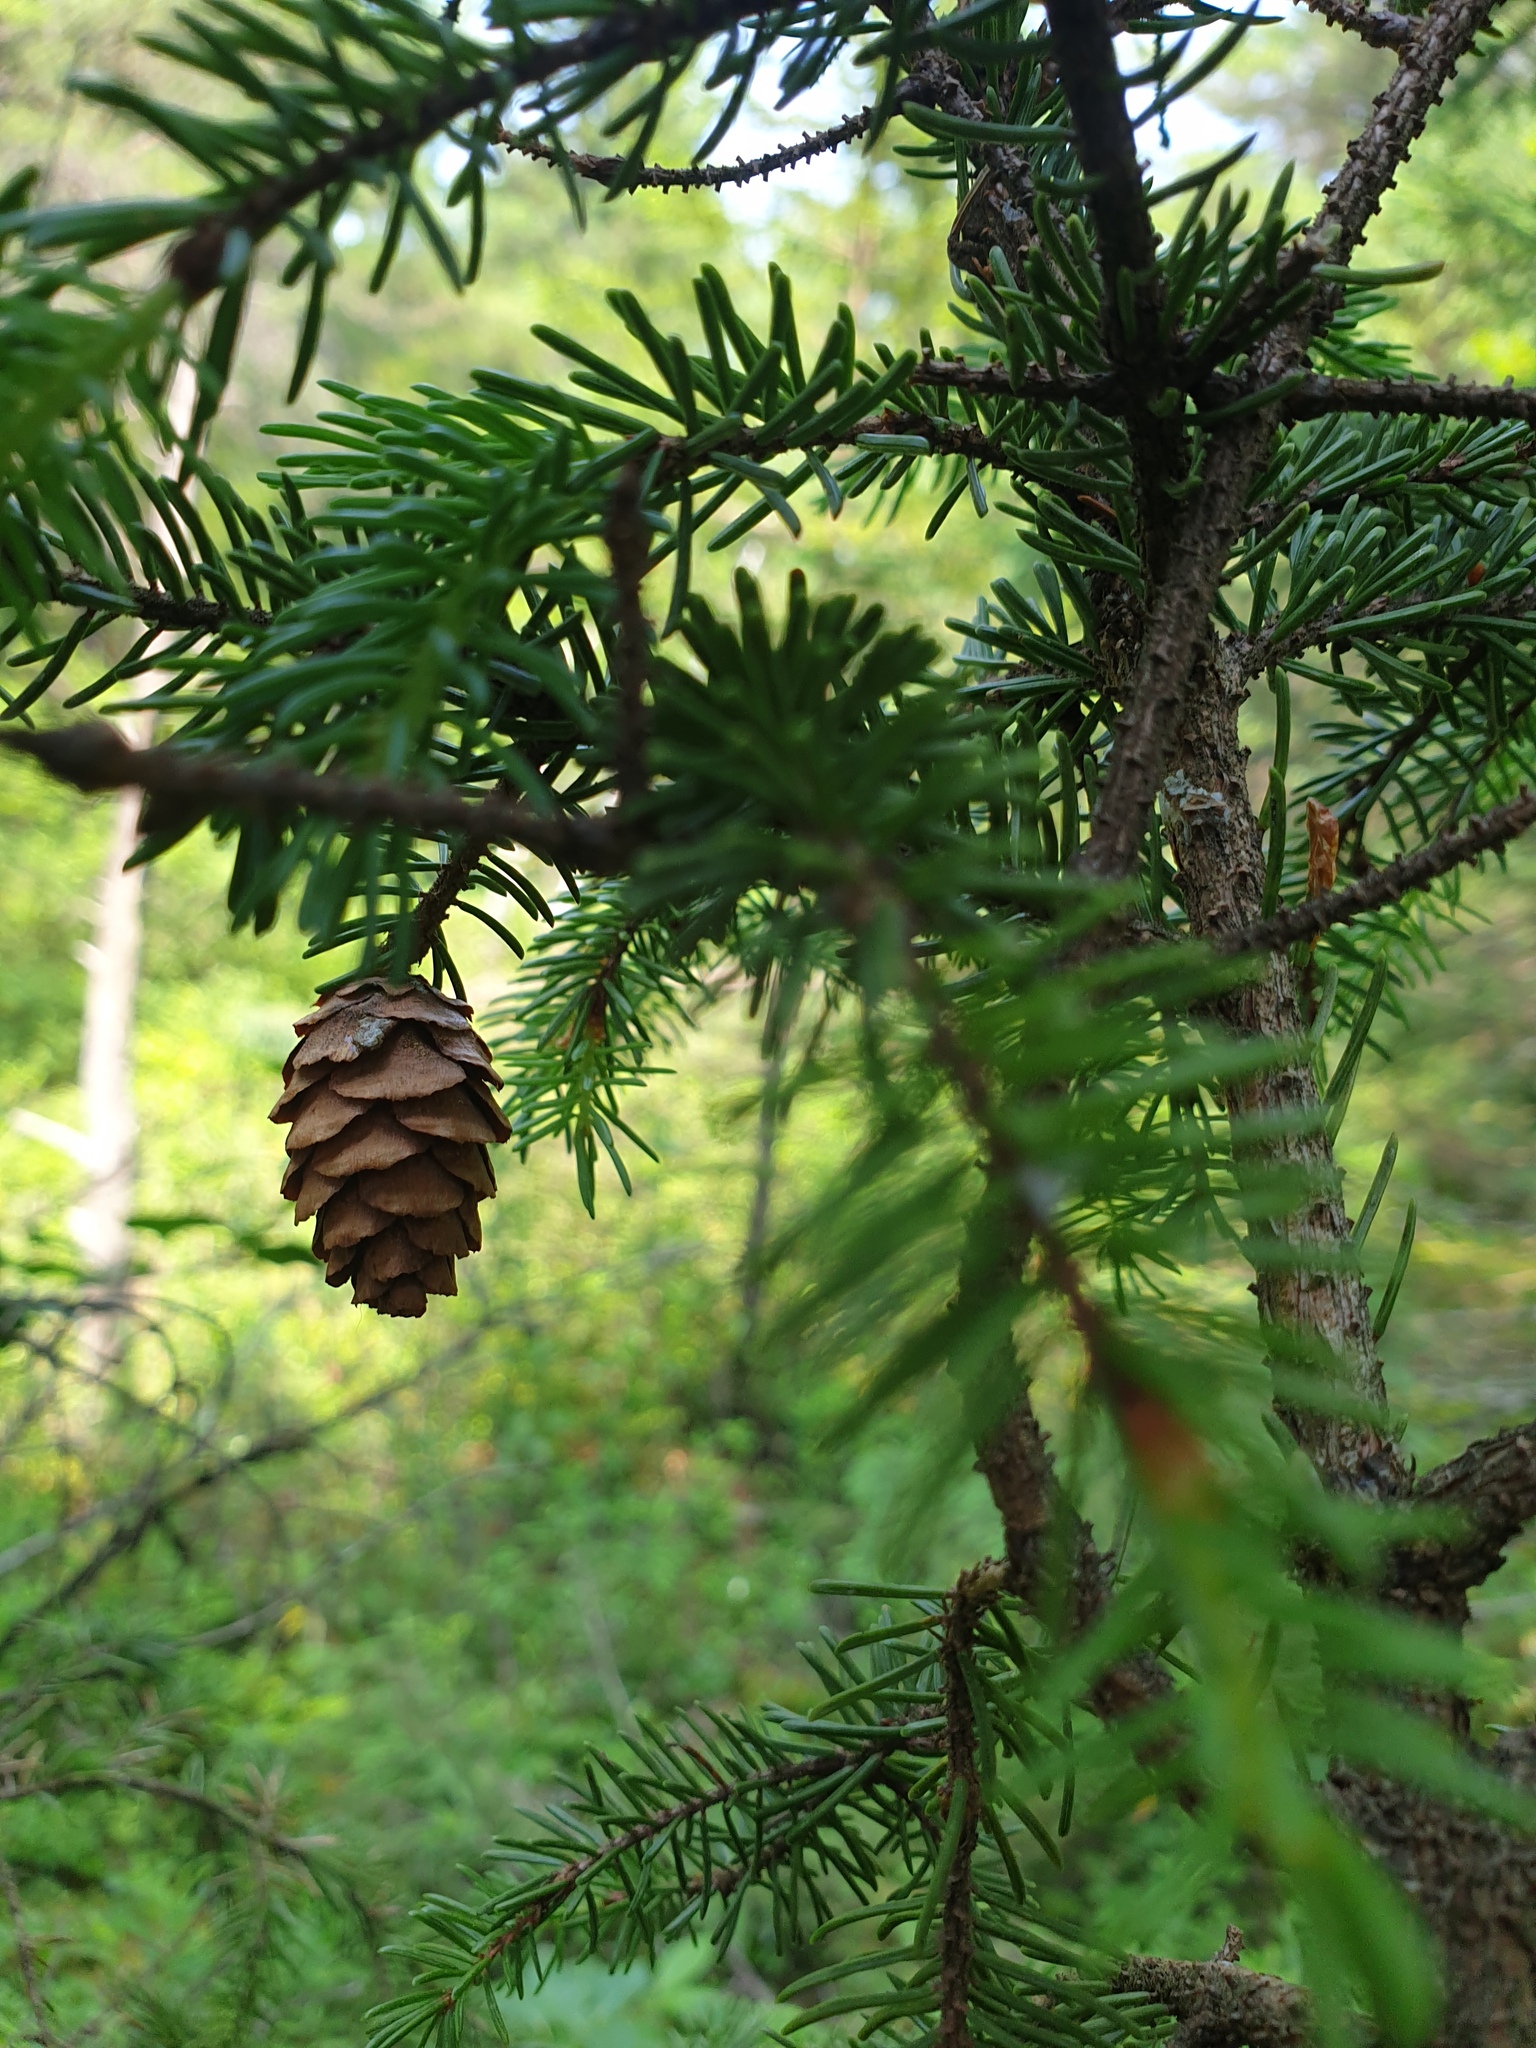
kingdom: Plantae
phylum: Tracheophyta
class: Pinopsida
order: Pinales
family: Pinaceae
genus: Picea
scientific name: Picea mariana
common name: Black spruce
